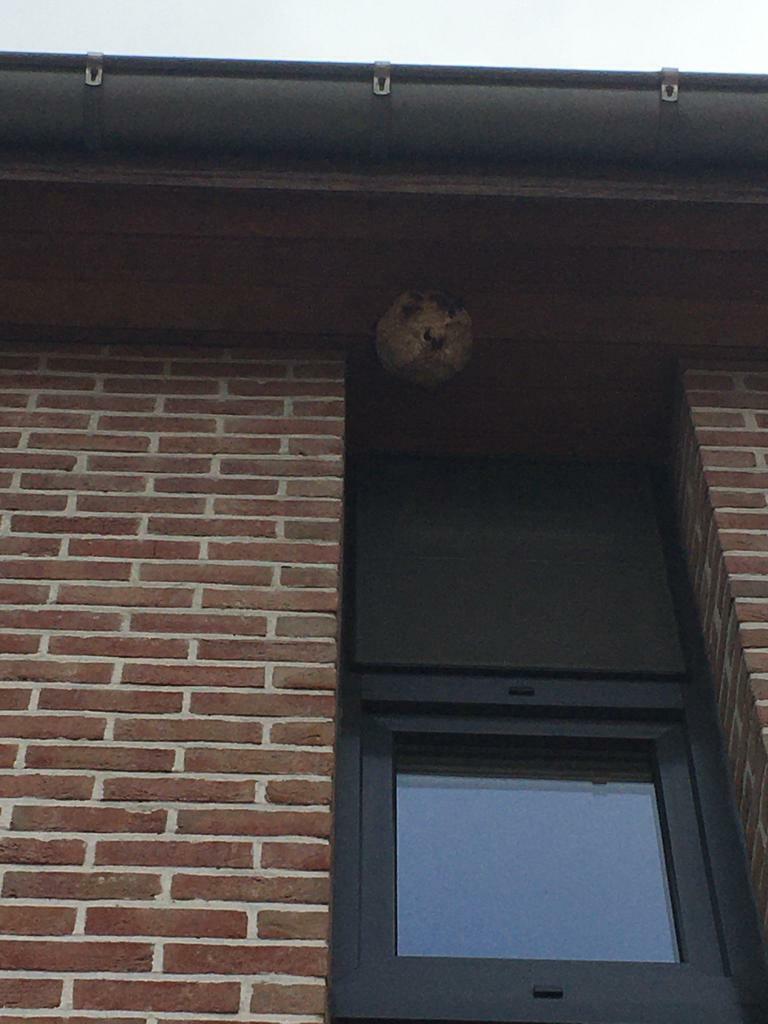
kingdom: Animalia
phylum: Arthropoda
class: Insecta
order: Hymenoptera
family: Vespidae
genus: Vespa
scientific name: Vespa velutina
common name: Asian hornet
